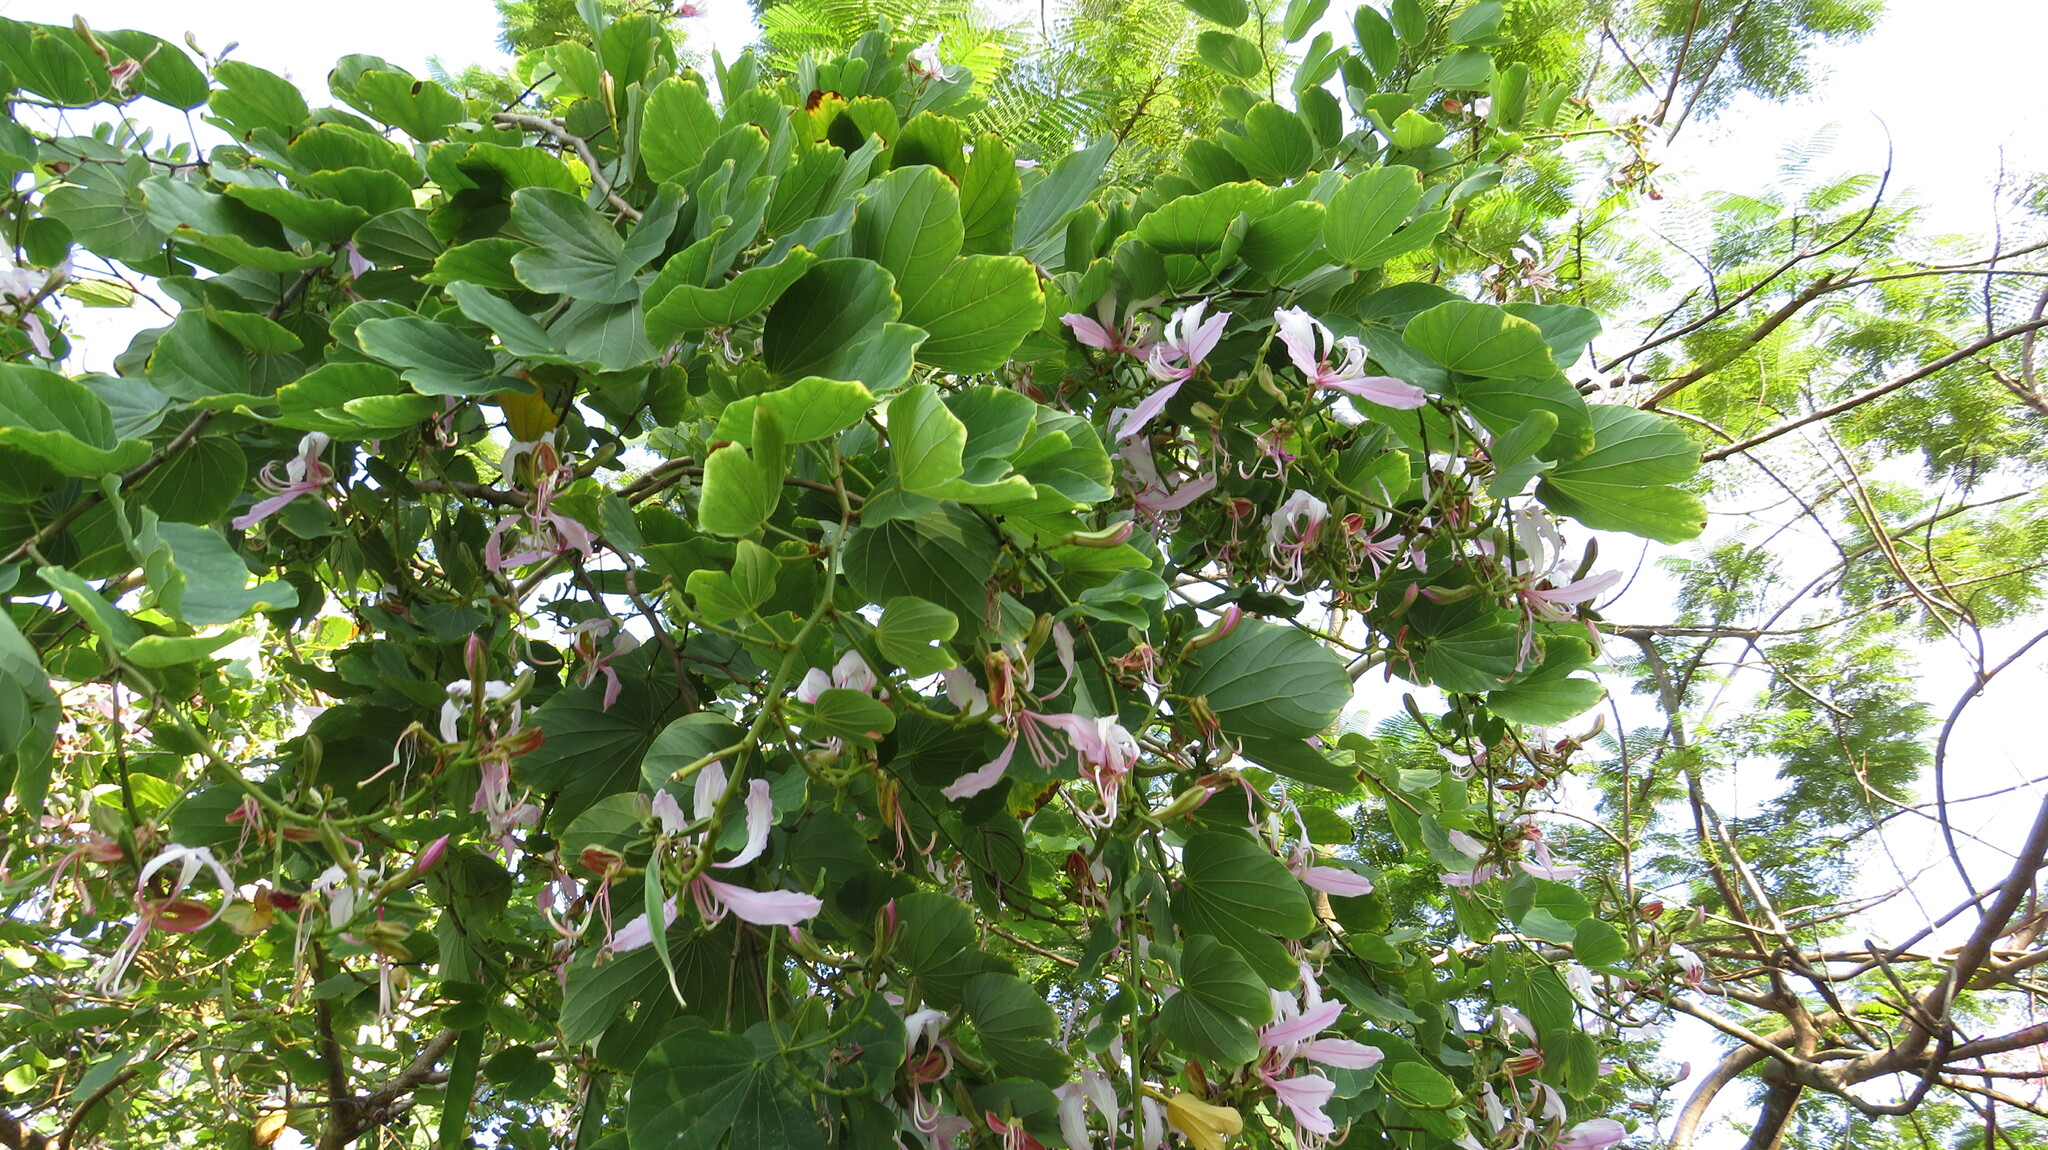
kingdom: Plantae
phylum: Tracheophyta
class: Magnoliopsida
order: Fabales
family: Fabaceae
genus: Bauhinia
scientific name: Bauhinia purpurea
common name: Butterfly-tree
